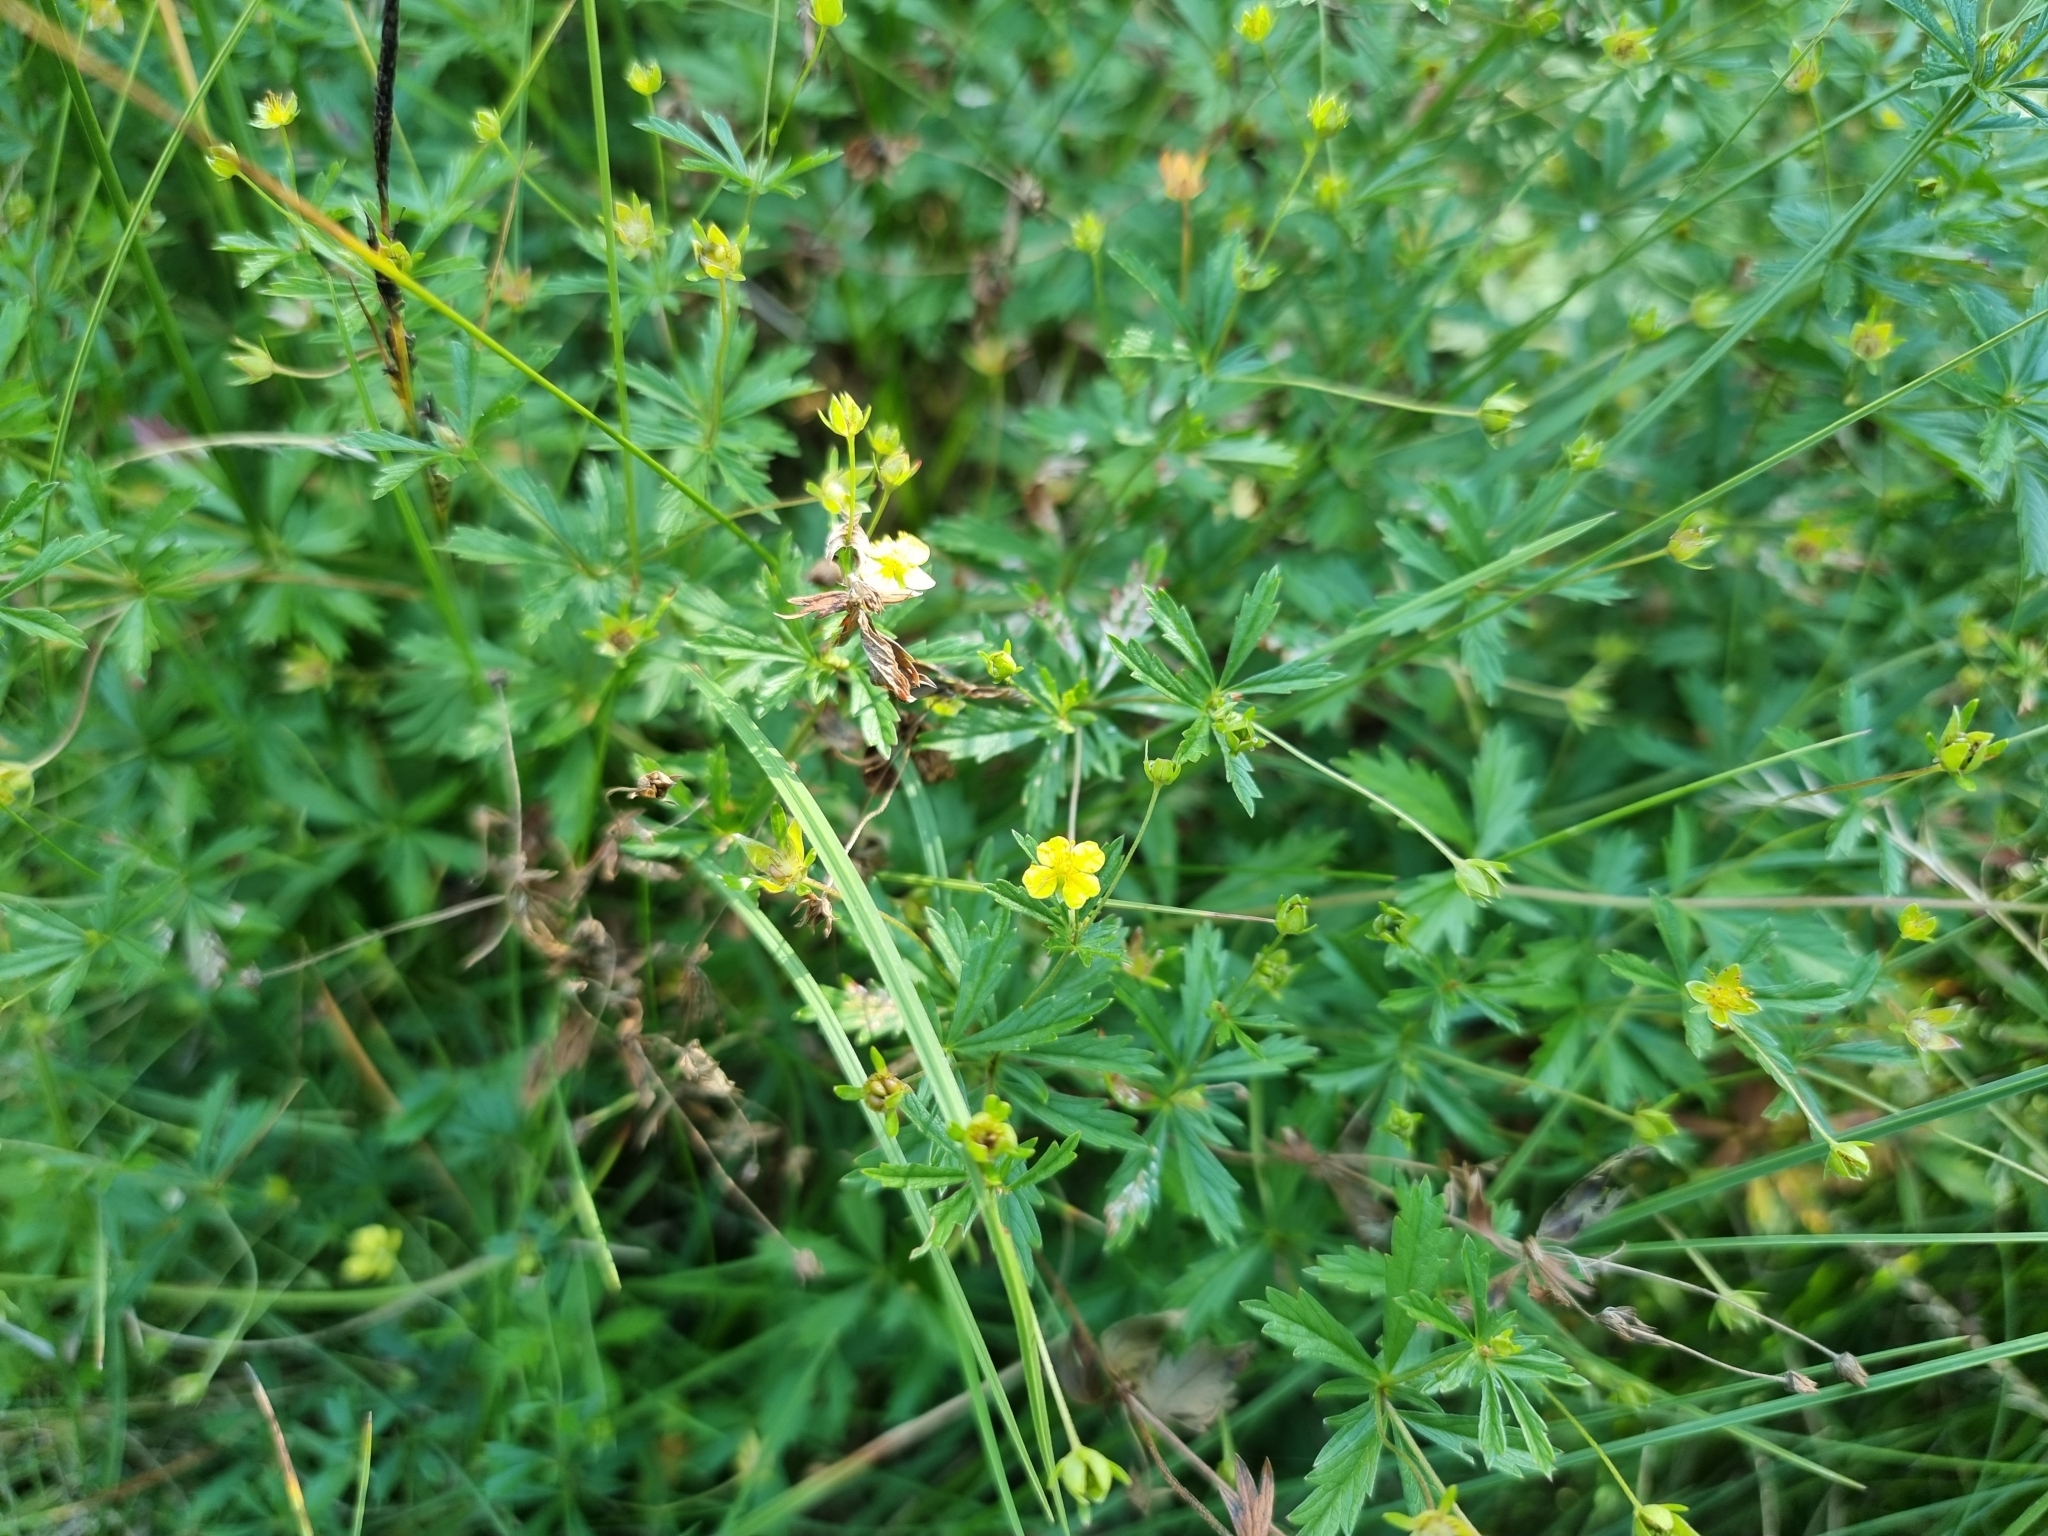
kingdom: Plantae
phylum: Tracheophyta
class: Magnoliopsida
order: Rosales
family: Rosaceae
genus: Potentilla
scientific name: Potentilla erecta
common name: Tormentil
